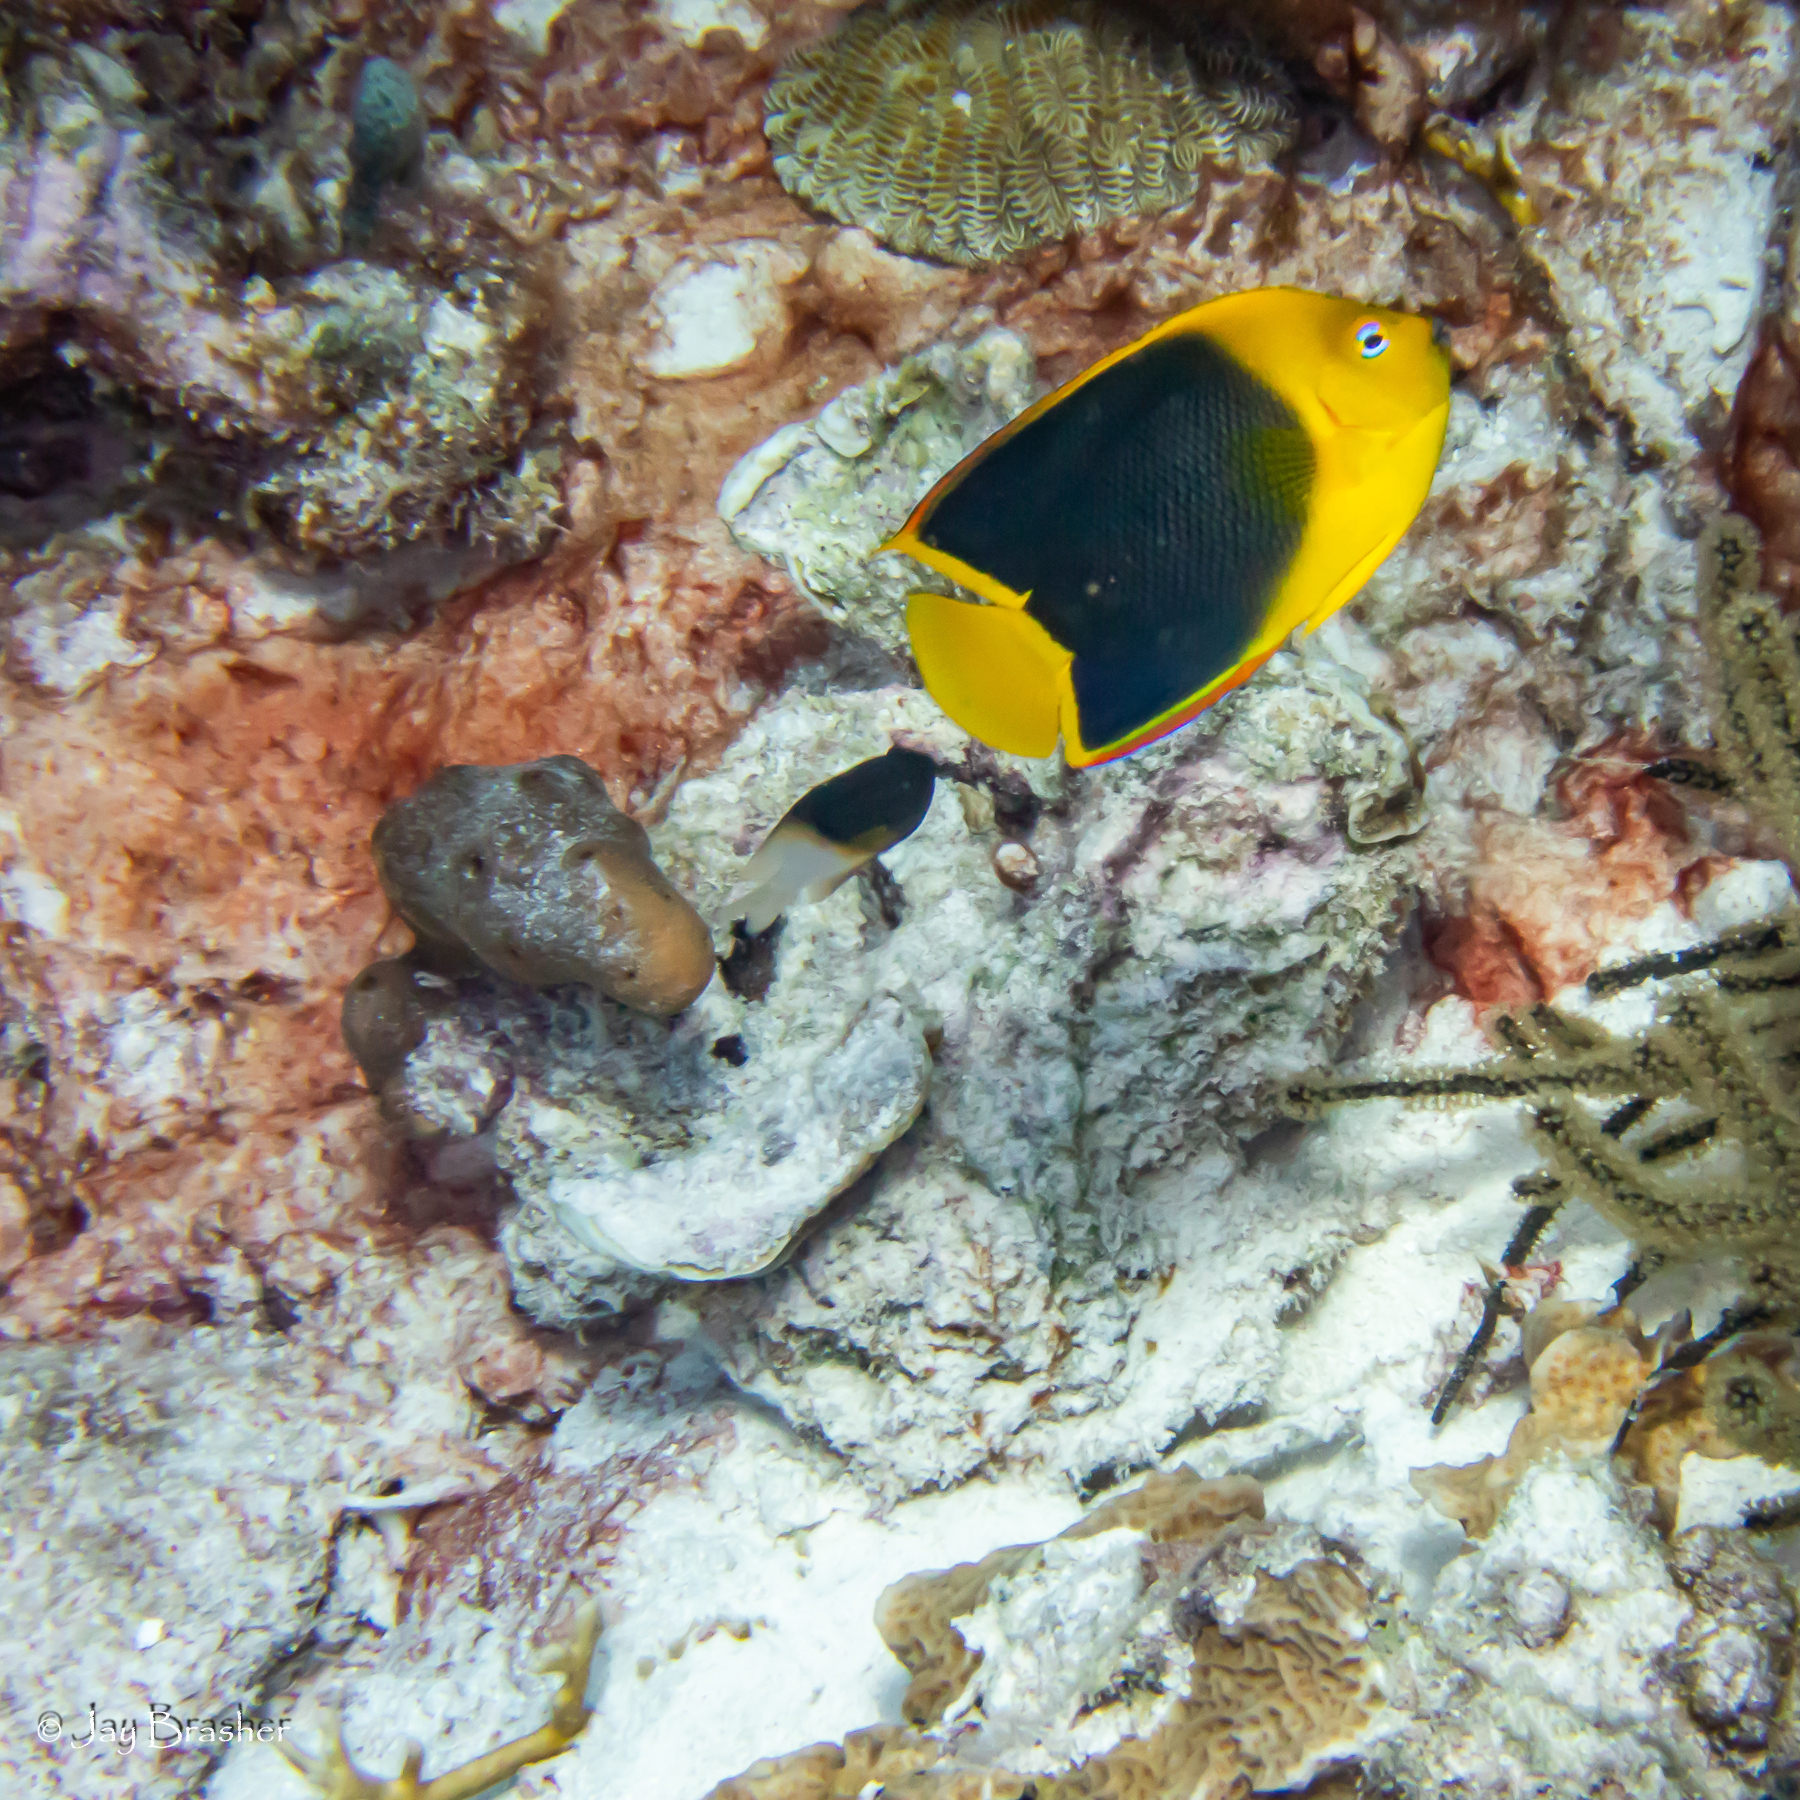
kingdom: Animalia
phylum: Chordata
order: Perciformes
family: Pomacentridae
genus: Stegastes
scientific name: Stegastes partitus
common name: Bicolor damselfish
